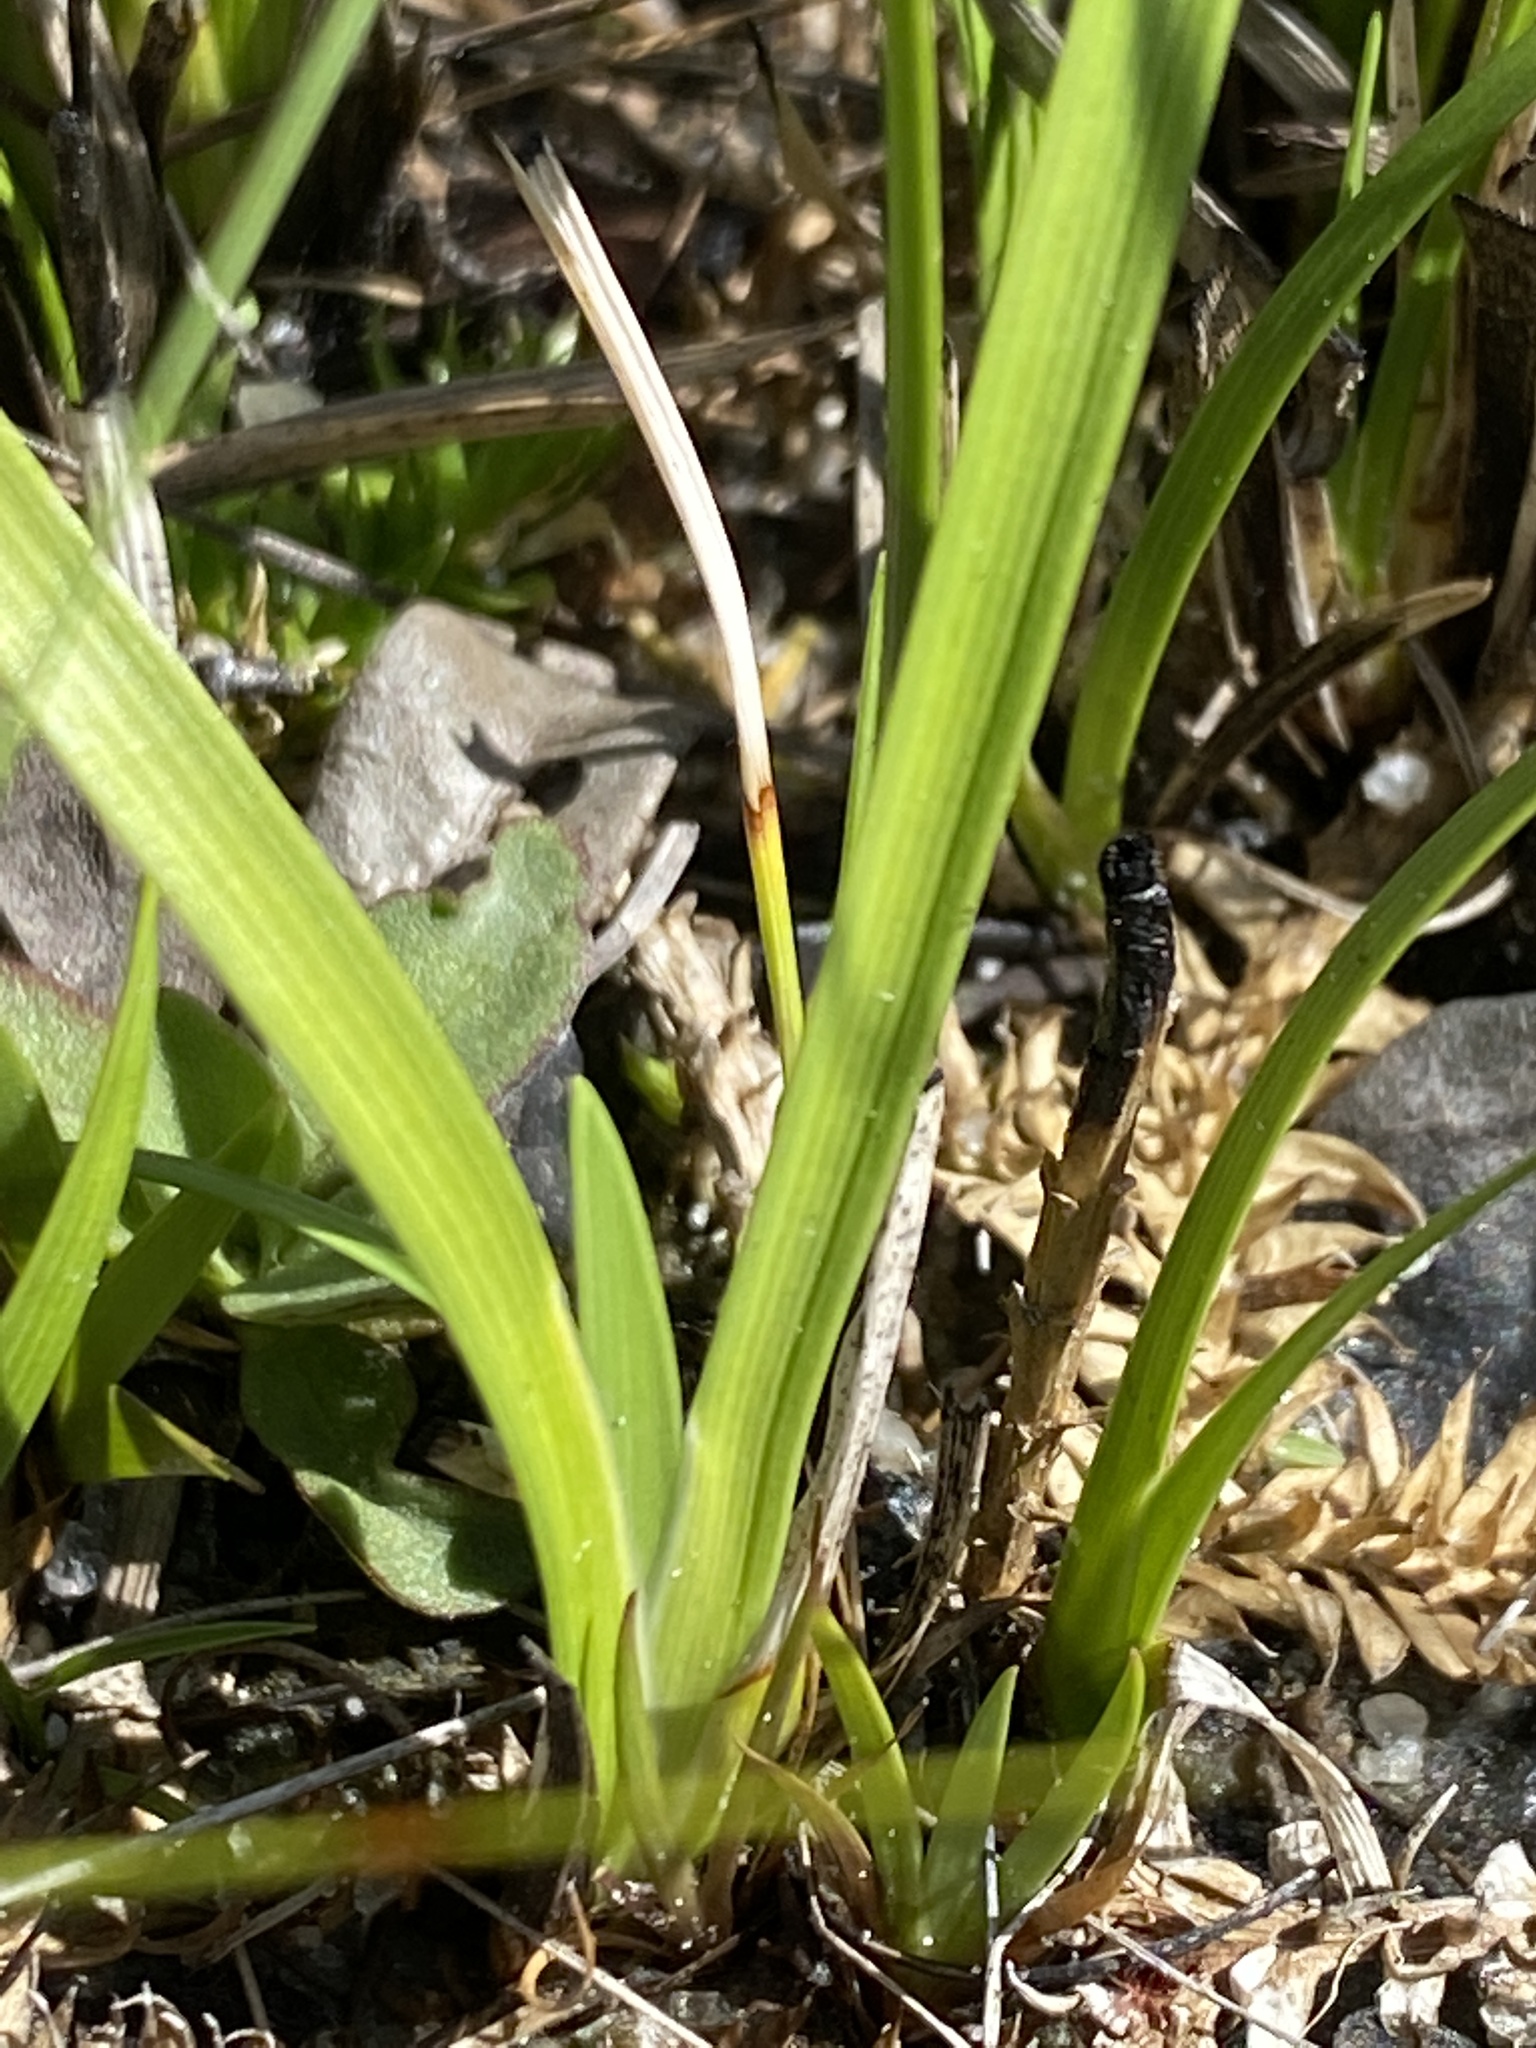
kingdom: Plantae
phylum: Tracheophyta
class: Liliopsida
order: Alismatales
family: Tofieldiaceae
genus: Harperocallis
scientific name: Harperocallis flava
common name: Harper's-beauty
